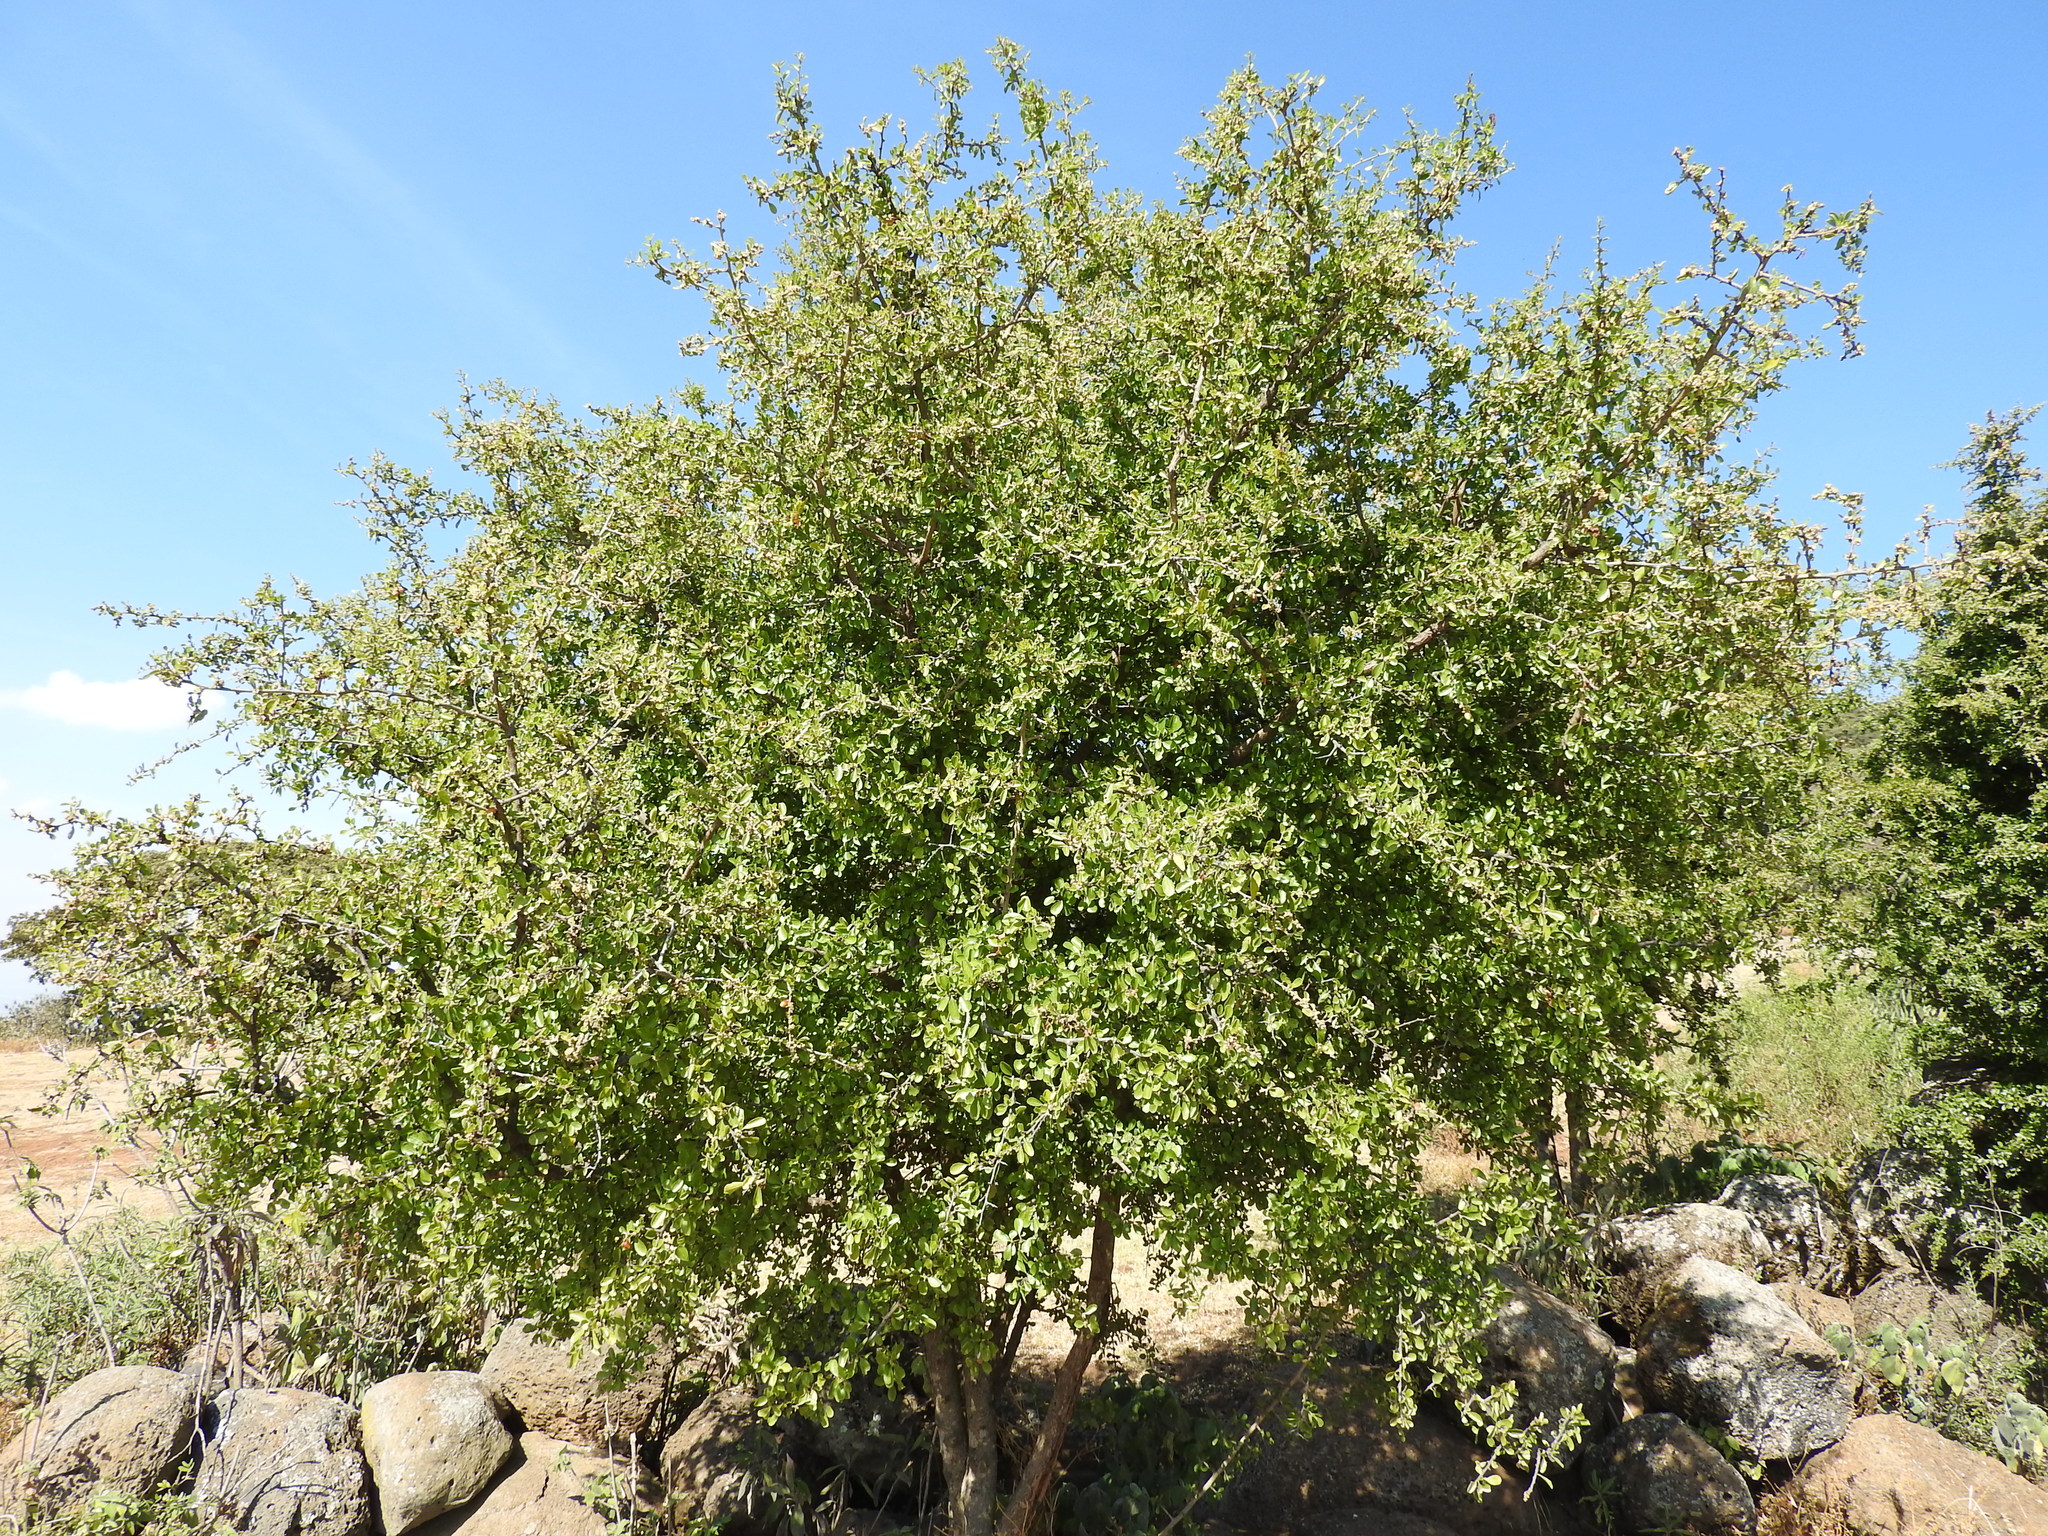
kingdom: Plantae
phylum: Tracheophyta
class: Magnoliopsida
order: Rosales
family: Rhamnaceae
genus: Condalia
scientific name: Condalia velutina
